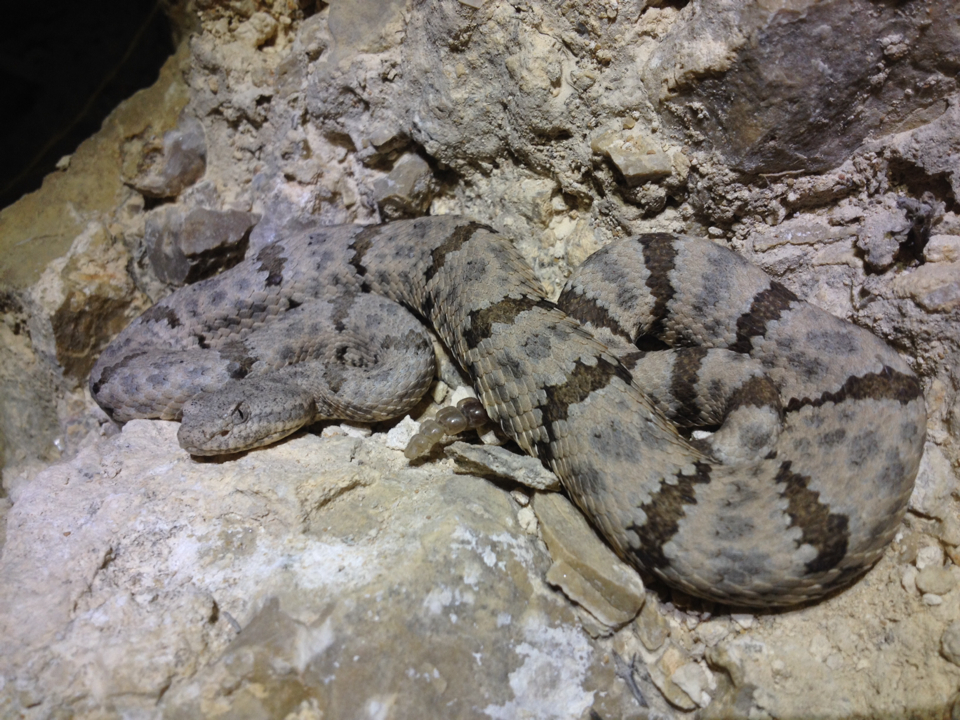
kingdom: Animalia
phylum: Chordata
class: Squamata
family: Viperidae
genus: Crotalus
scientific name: Crotalus lepidus
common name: Rock rattlesnake
